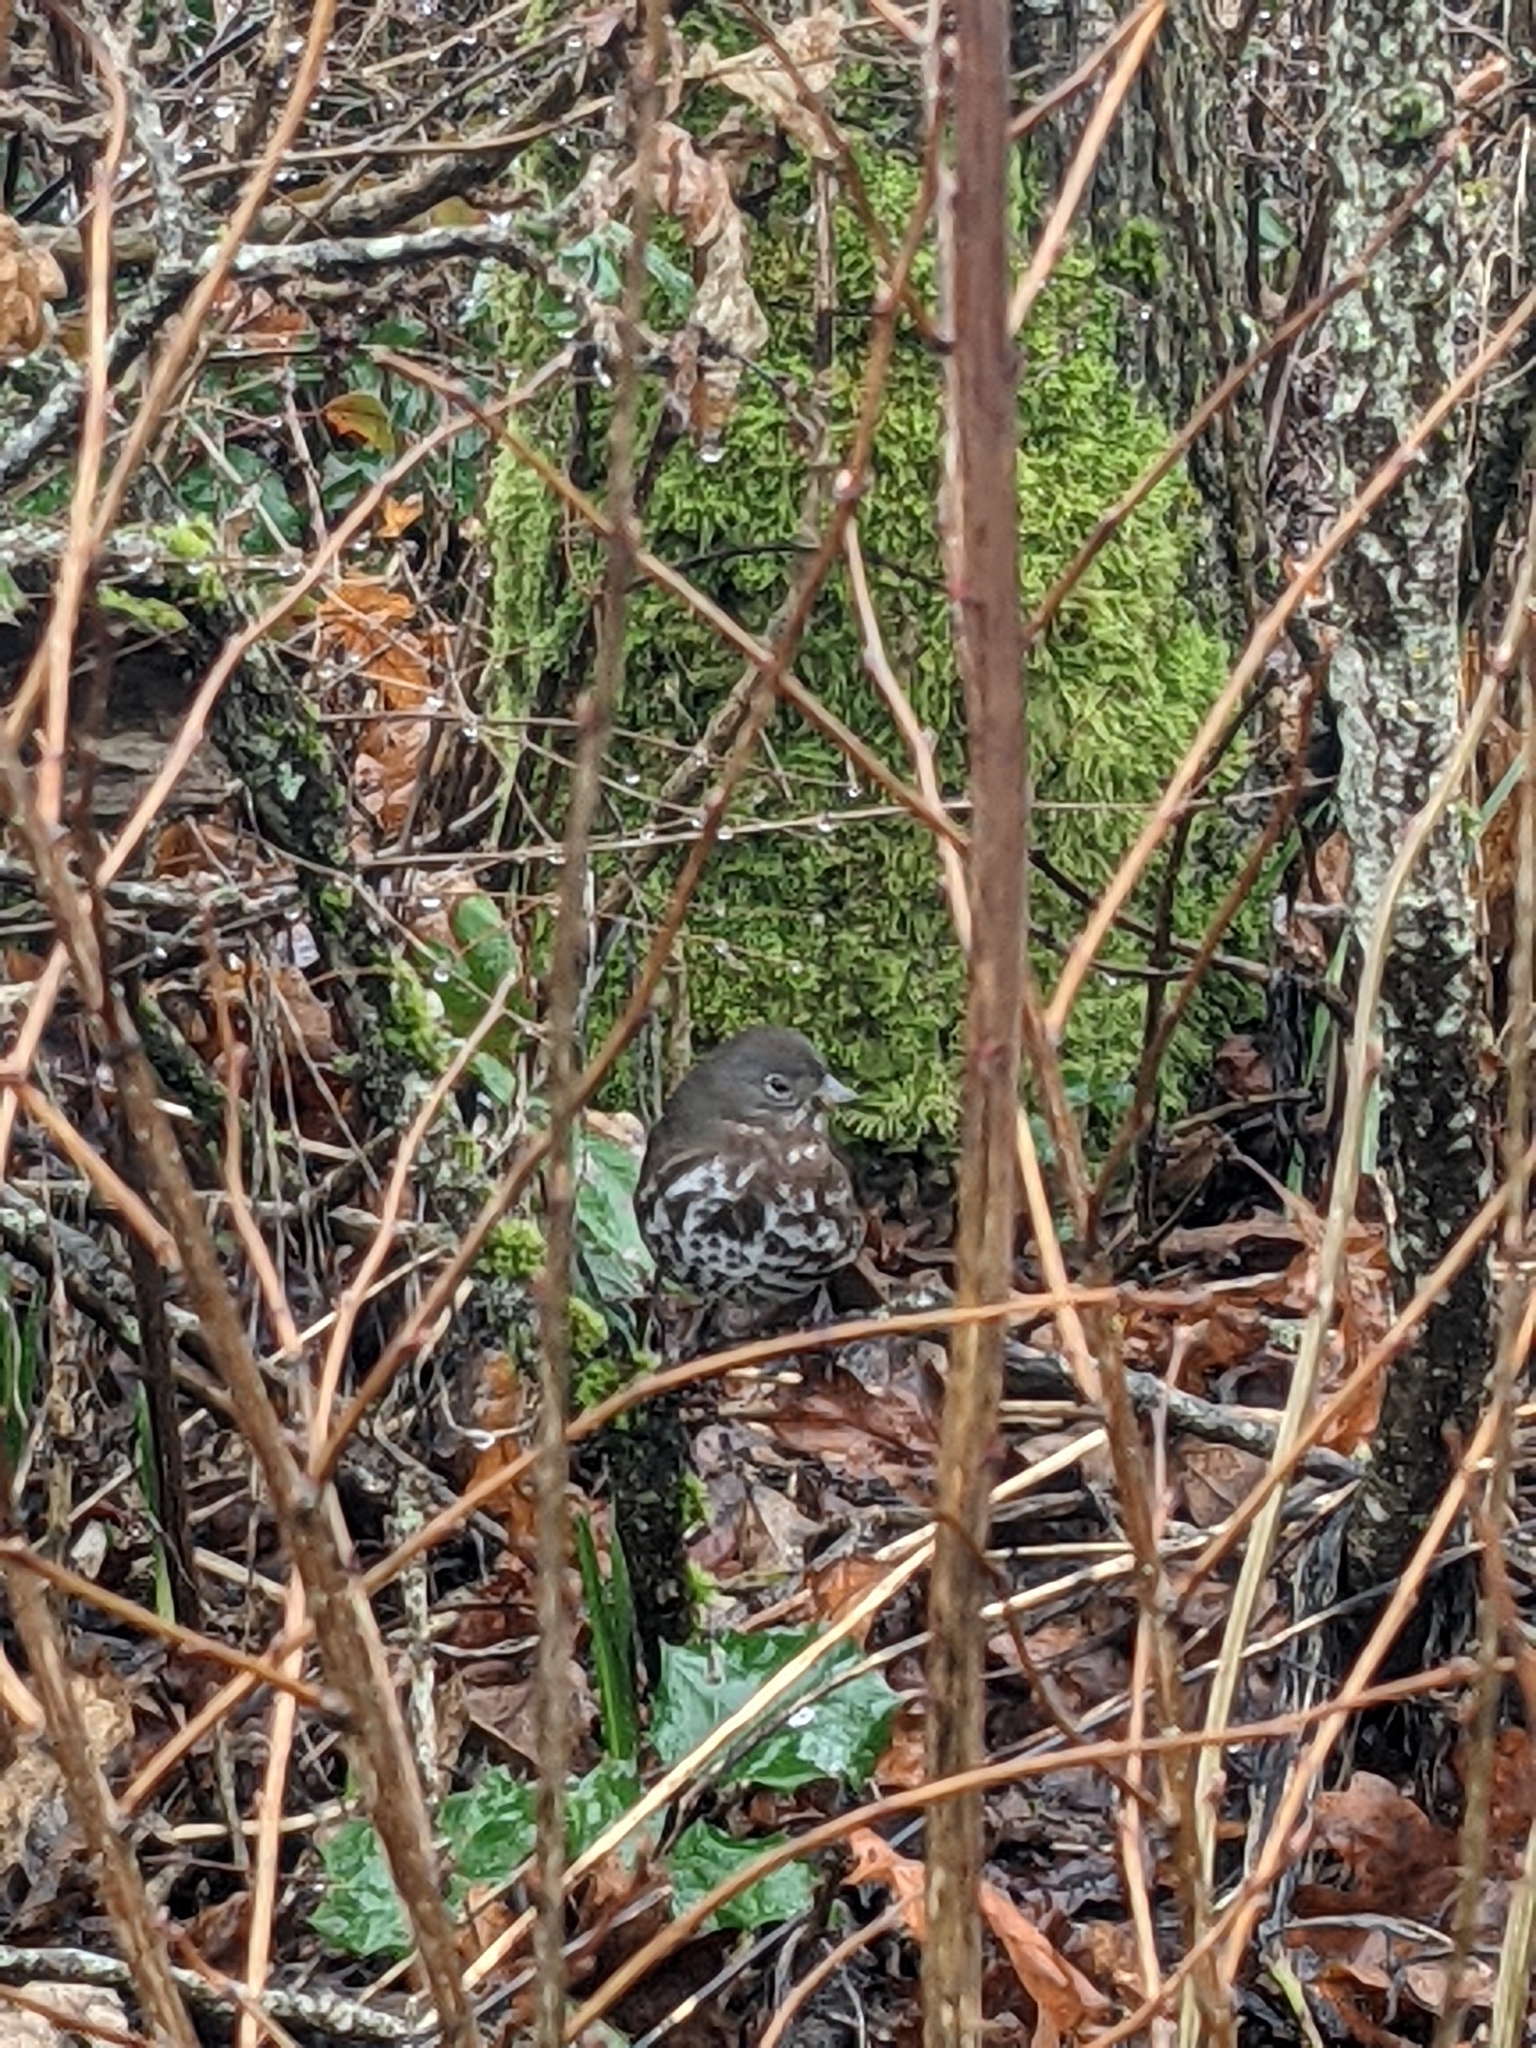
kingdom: Animalia
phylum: Chordata
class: Aves
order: Passeriformes
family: Passerellidae
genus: Passerella
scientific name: Passerella iliaca
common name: Fox sparrow
